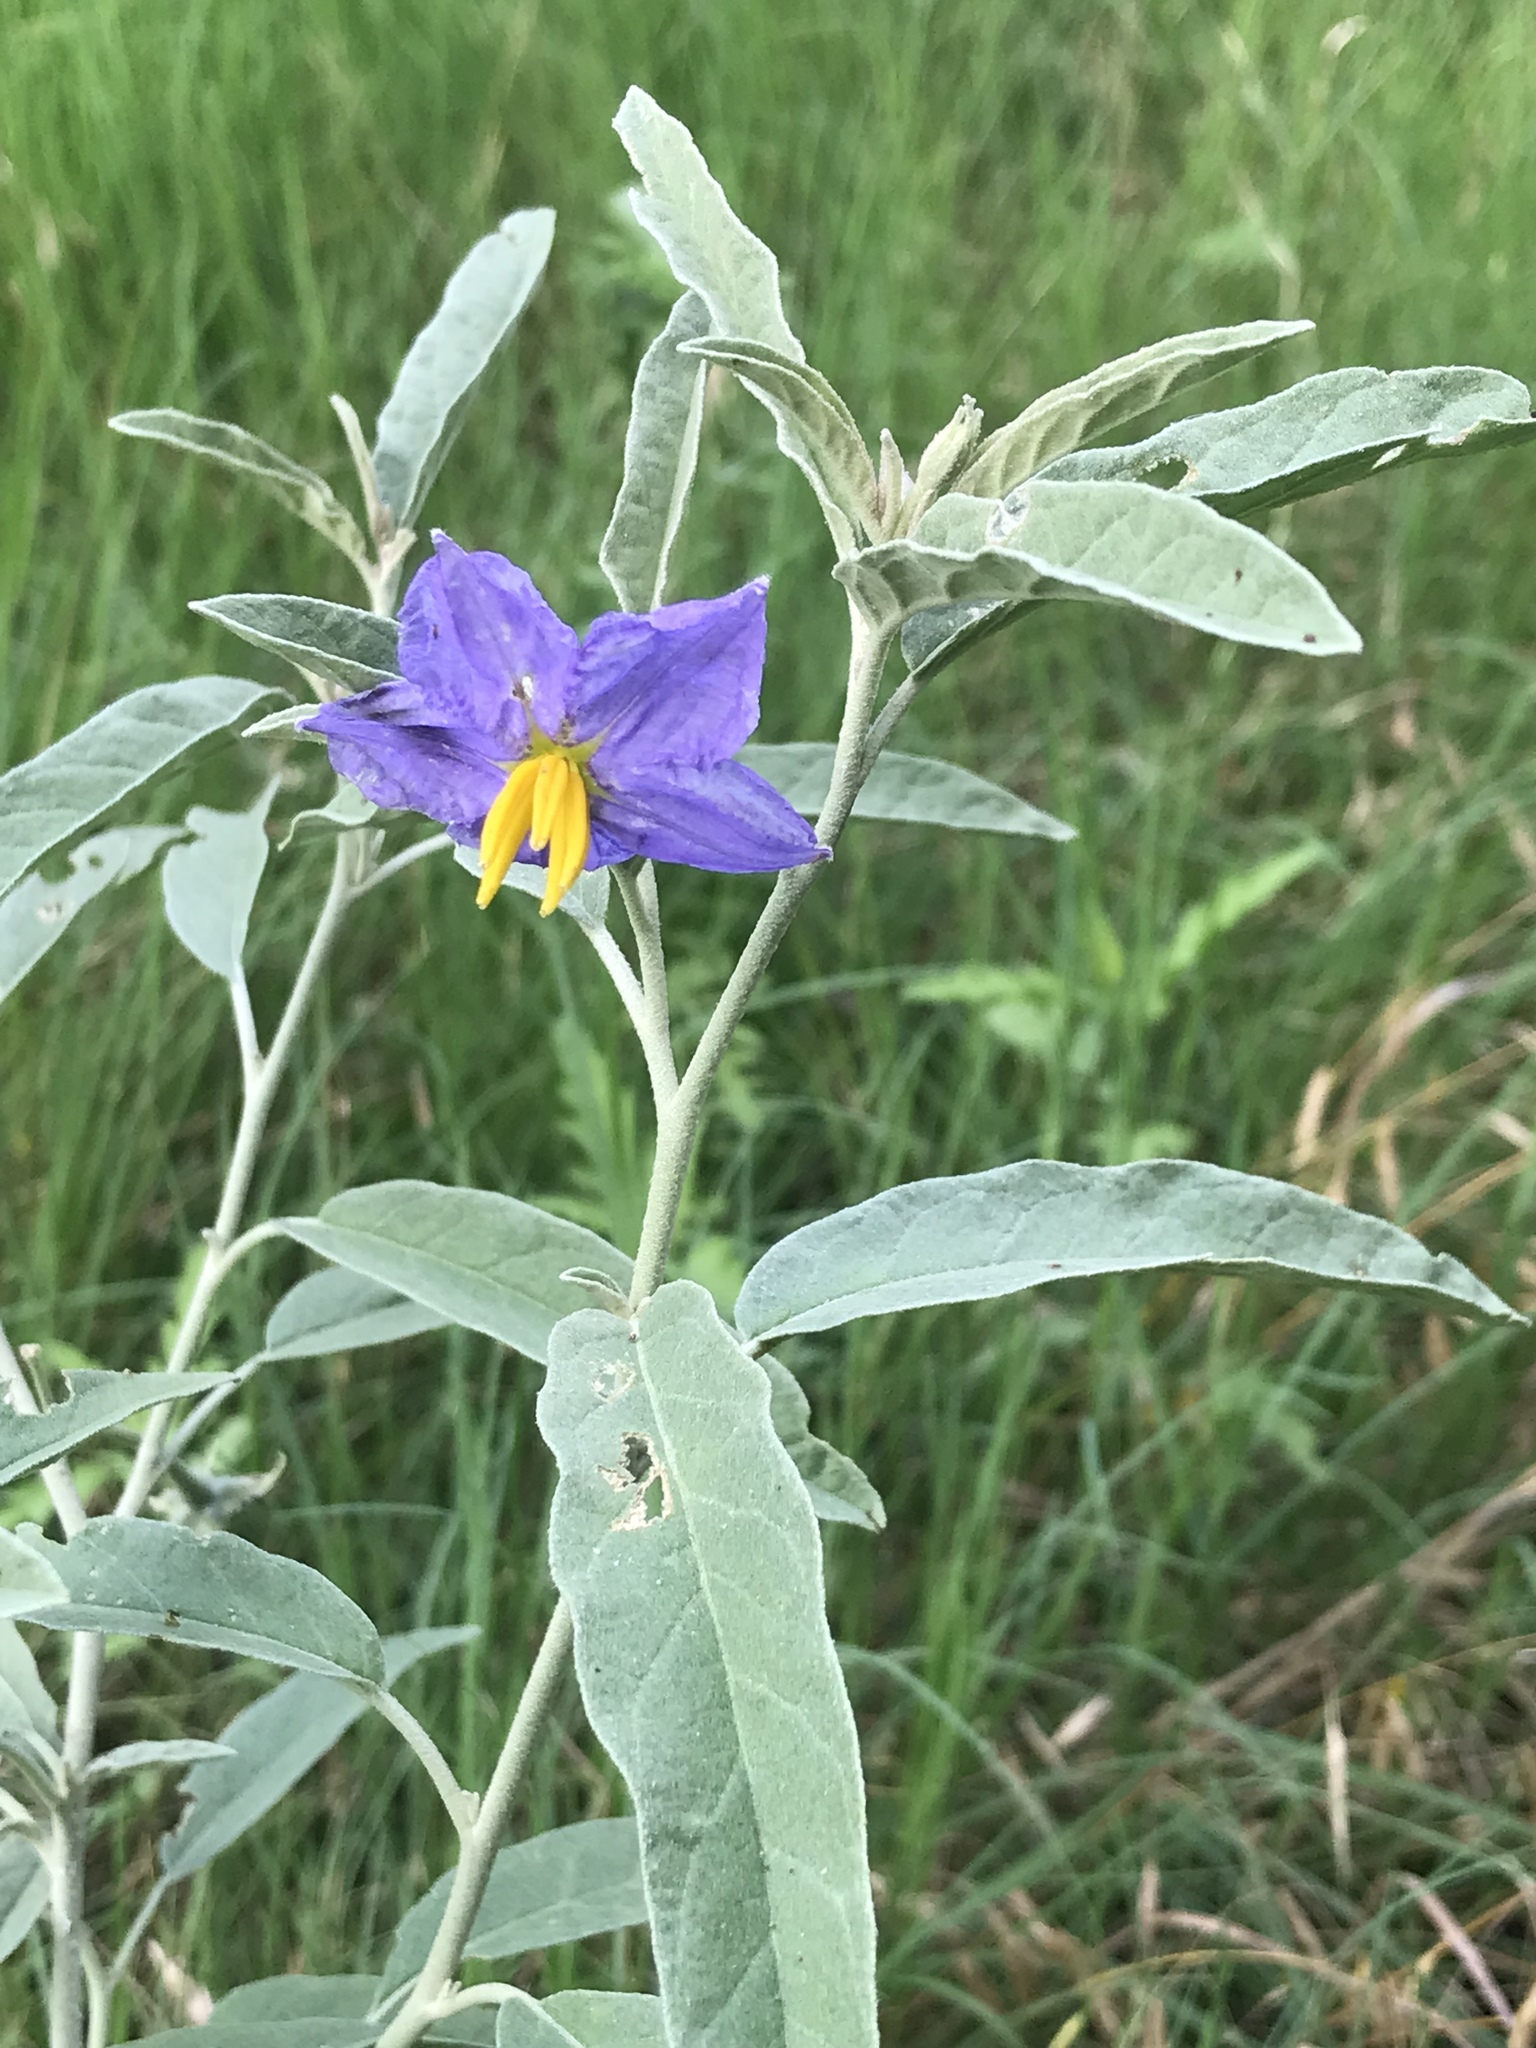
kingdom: Plantae
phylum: Tracheophyta
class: Magnoliopsida
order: Solanales
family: Solanaceae
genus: Solanum
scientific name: Solanum elaeagnifolium
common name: Silverleaf nightshade
